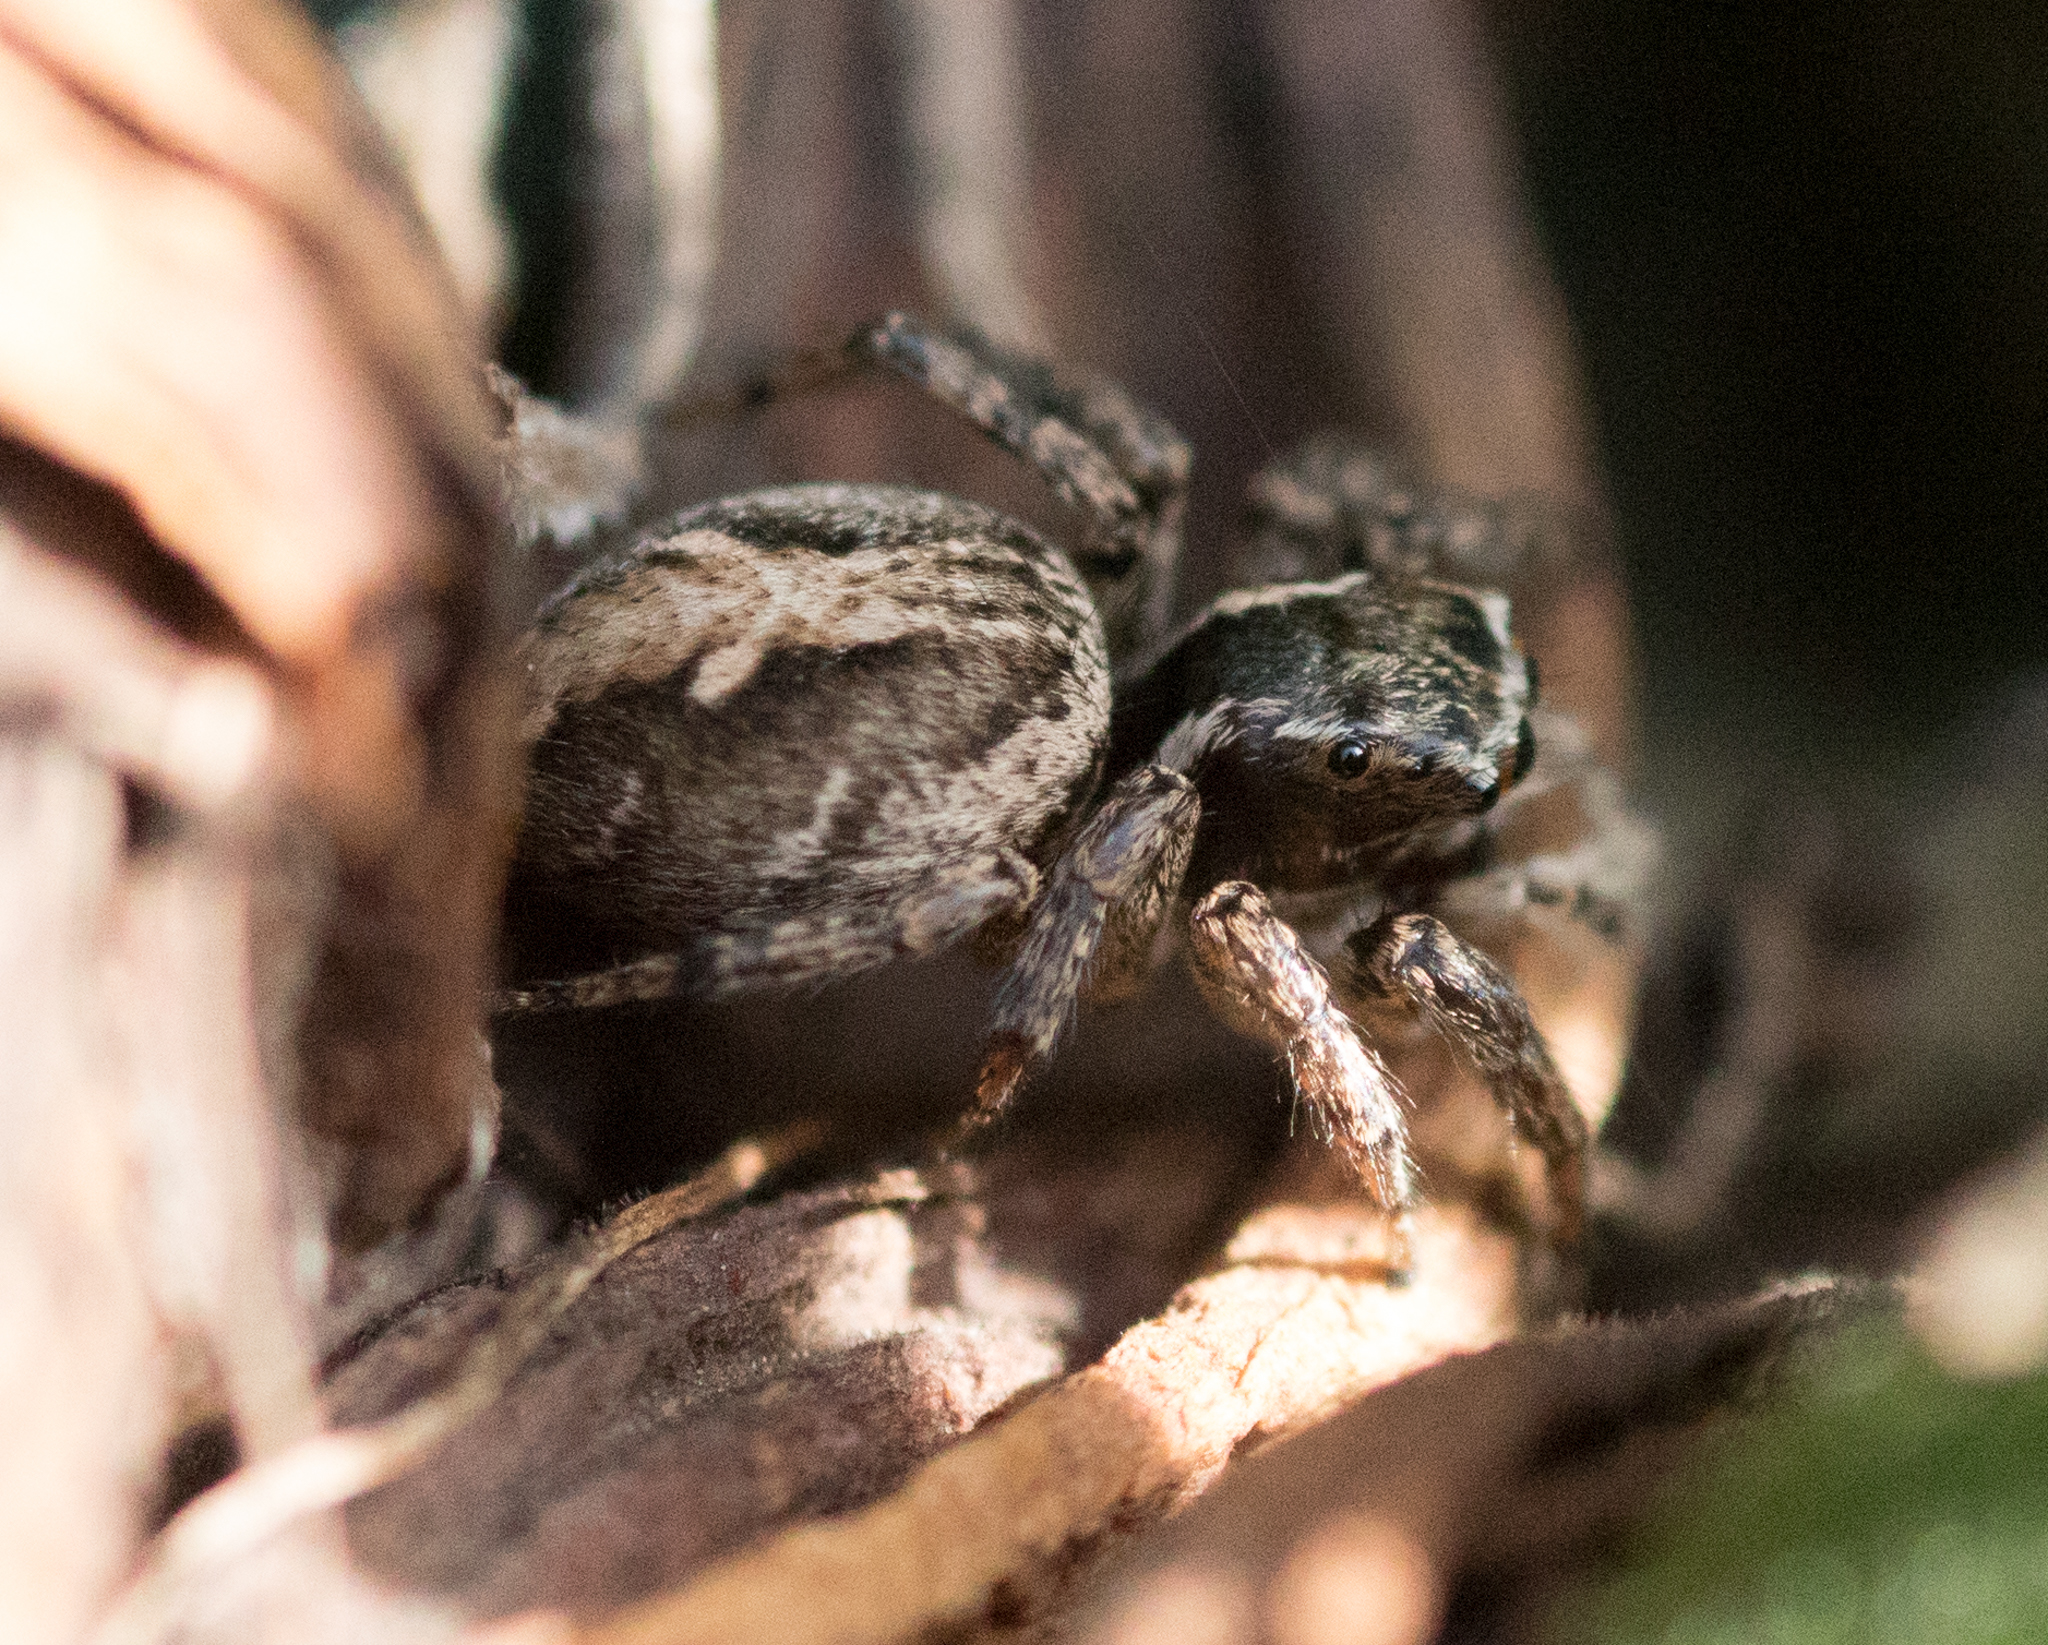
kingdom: Animalia
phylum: Arthropoda
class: Arachnida
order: Araneae
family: Salticidae
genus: Aphirape
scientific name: Aphirape misionensis
